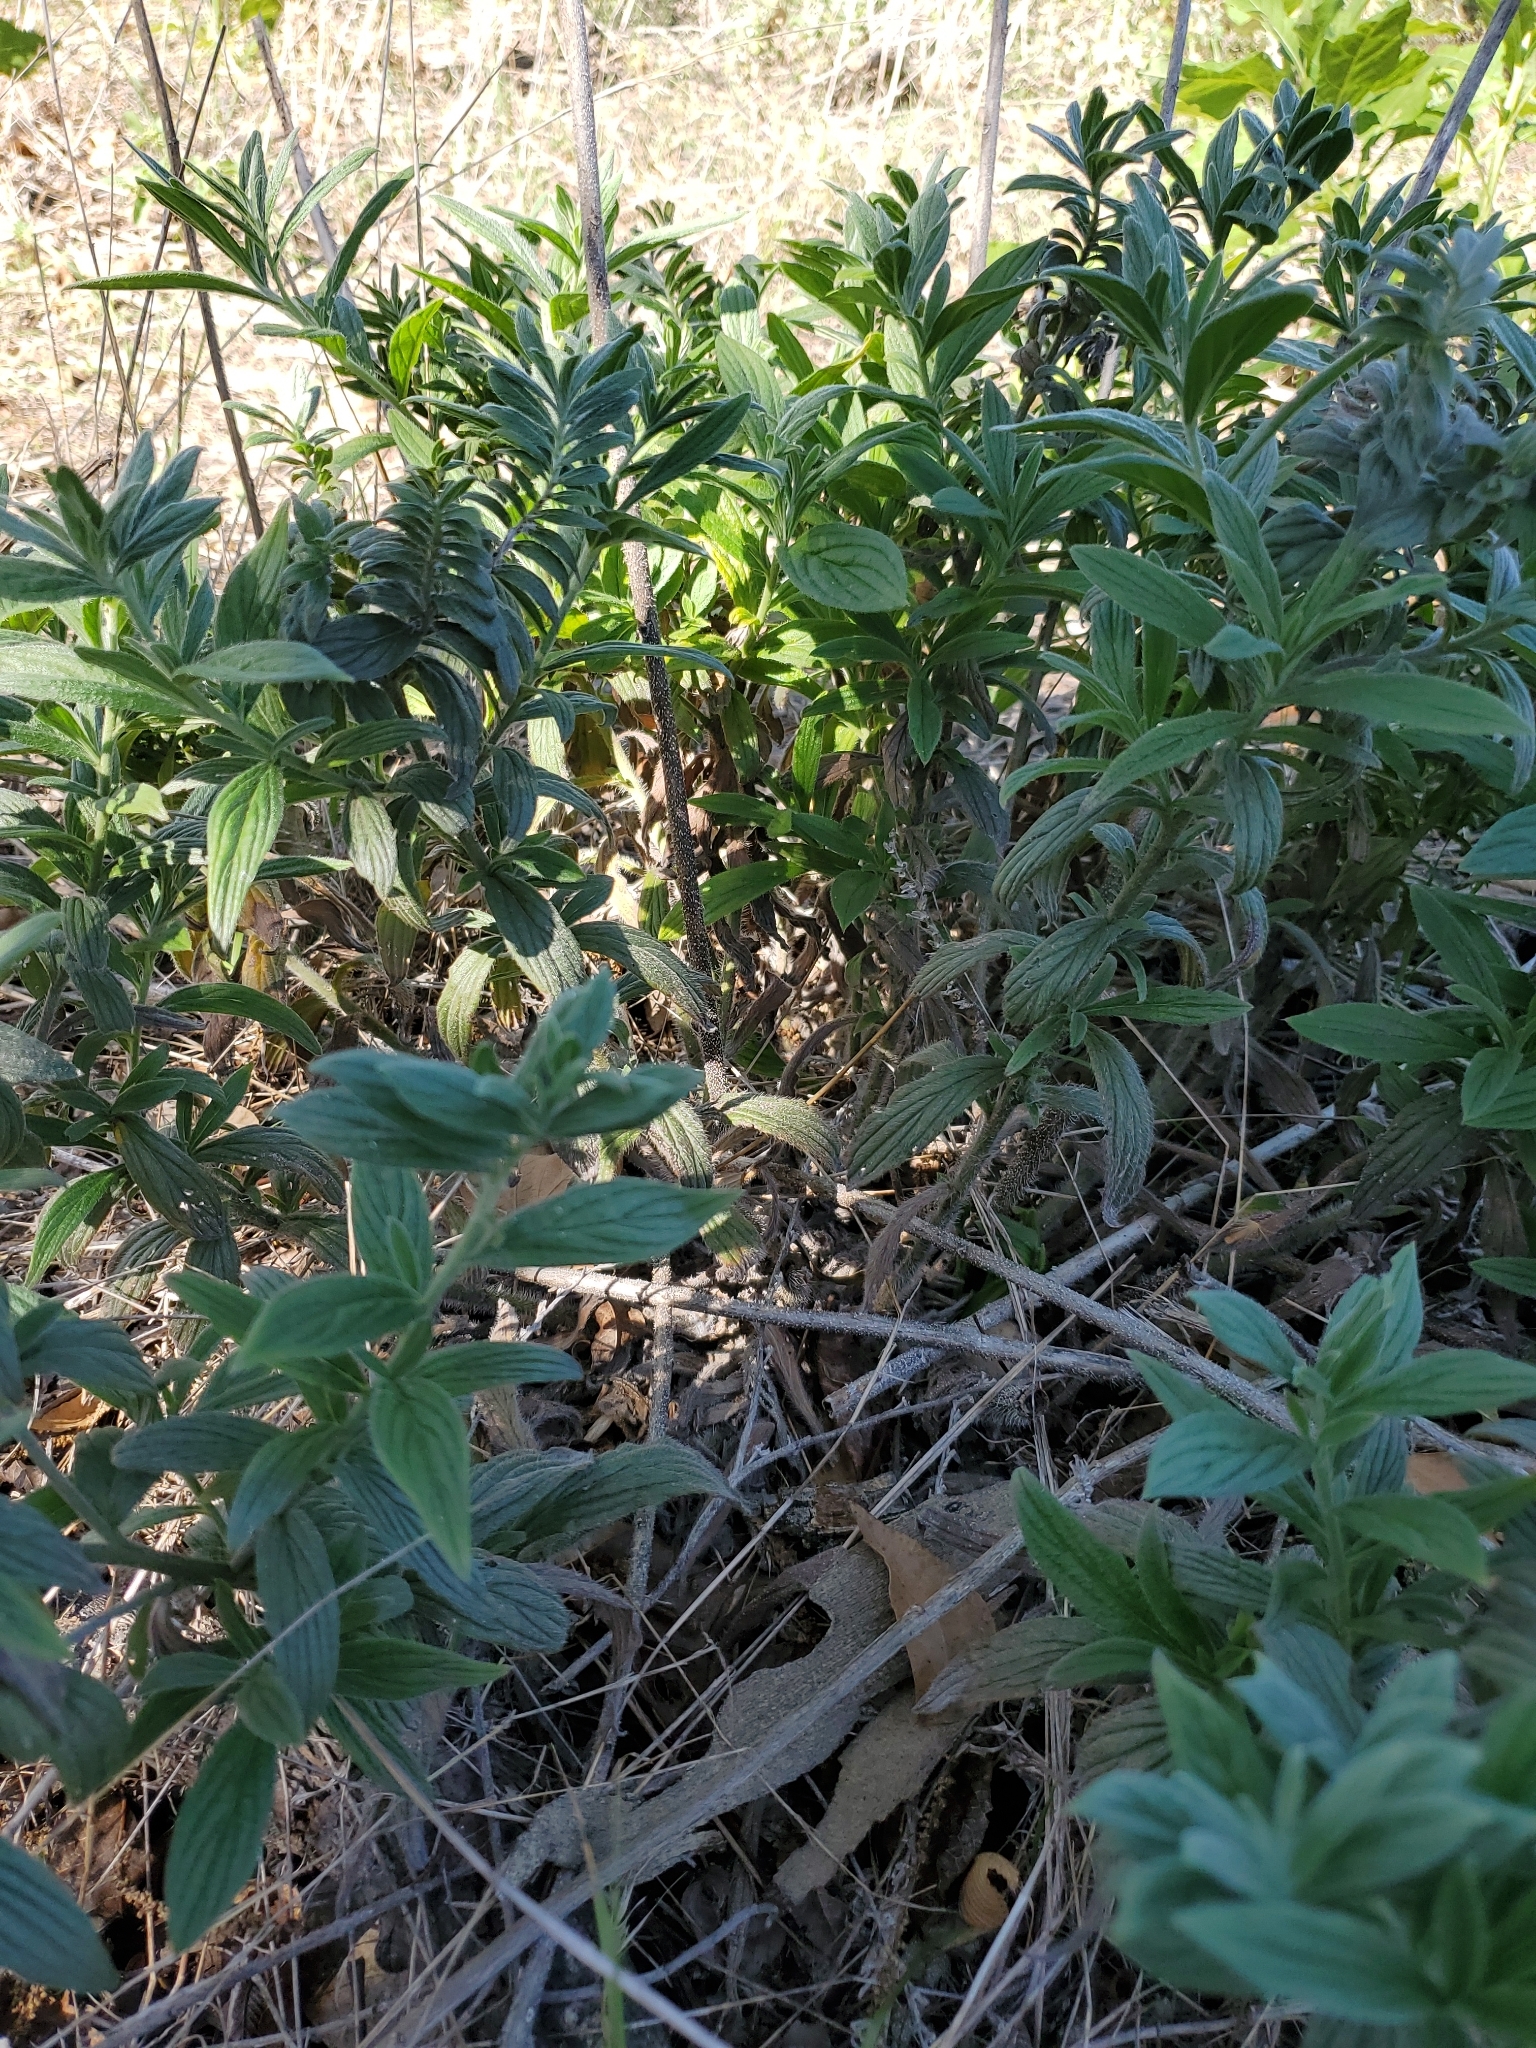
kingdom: Plantae
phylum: Tracheophyta
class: Magnoliopsida
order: Boraginales
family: Boraginaceae
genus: Lithospermum
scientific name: Lithospermum caroliniense
